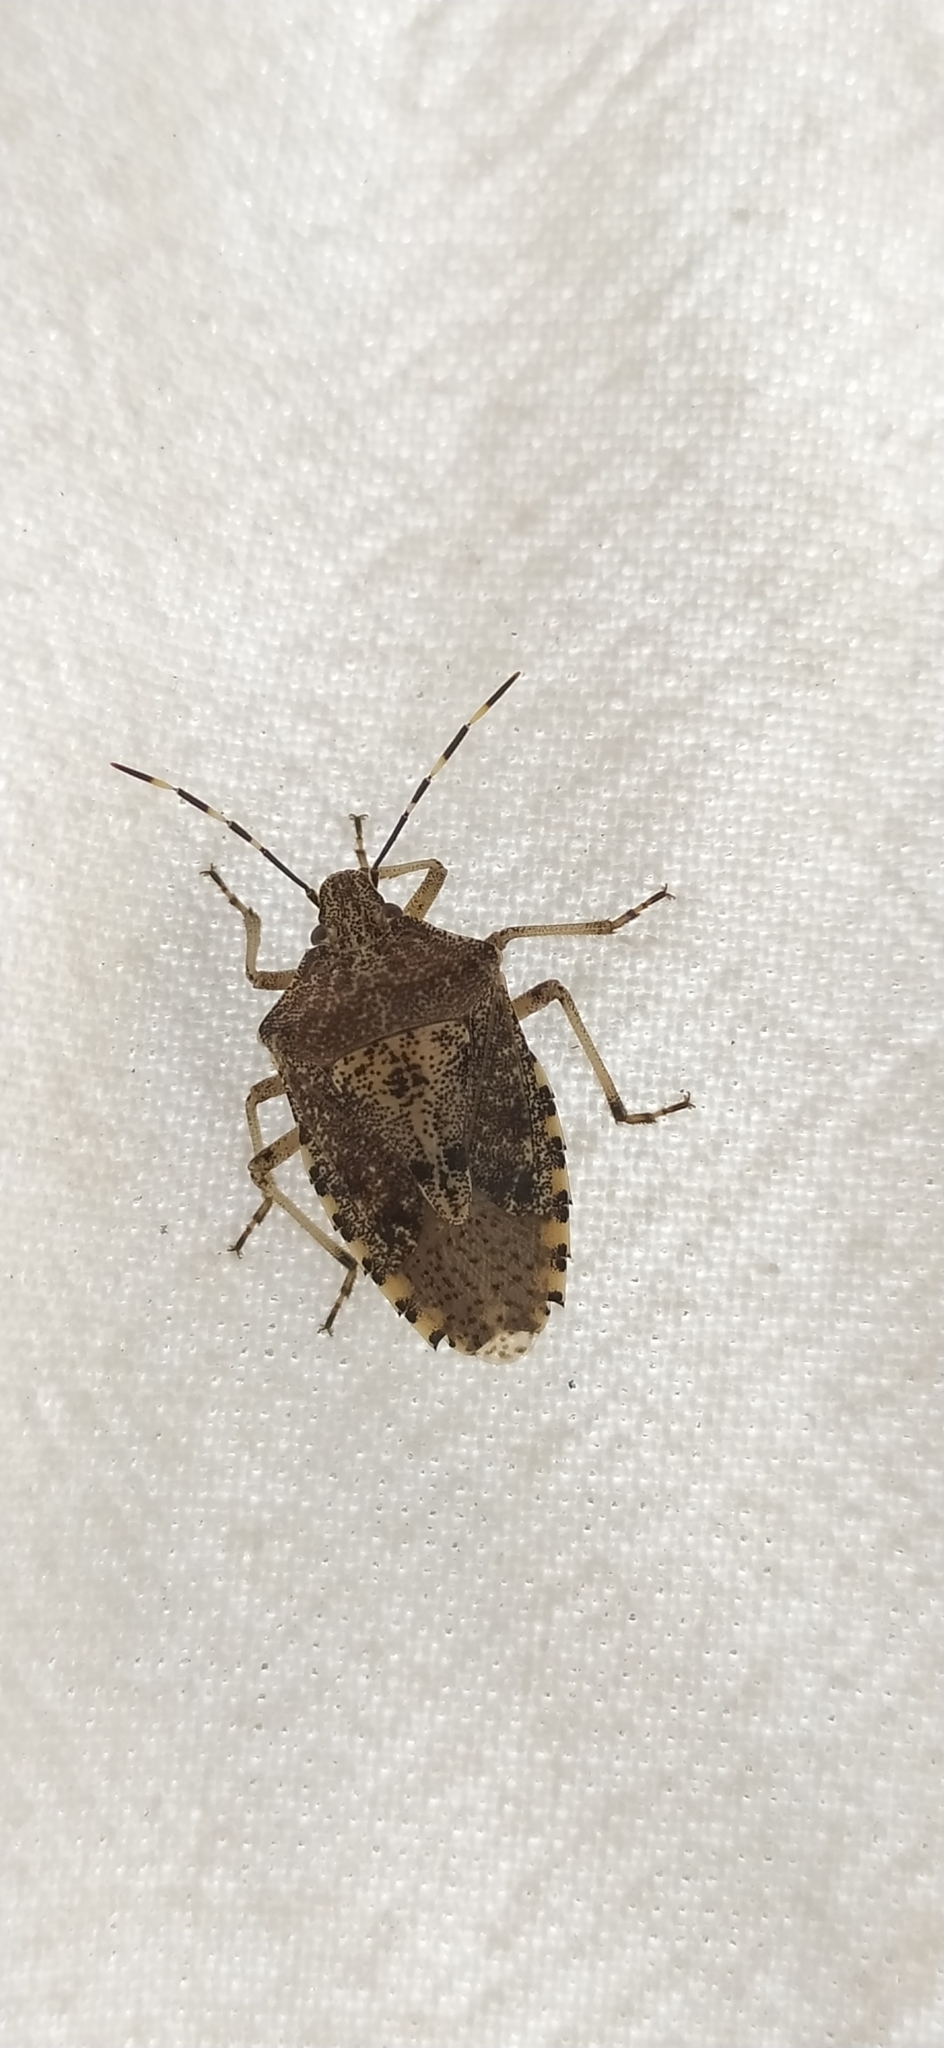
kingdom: Animalia
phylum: Arthropoda
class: Insecta
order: Hemiptera
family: Pentatomidae
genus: Rhaphigaster
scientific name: Rhaphigaster nebulosa
